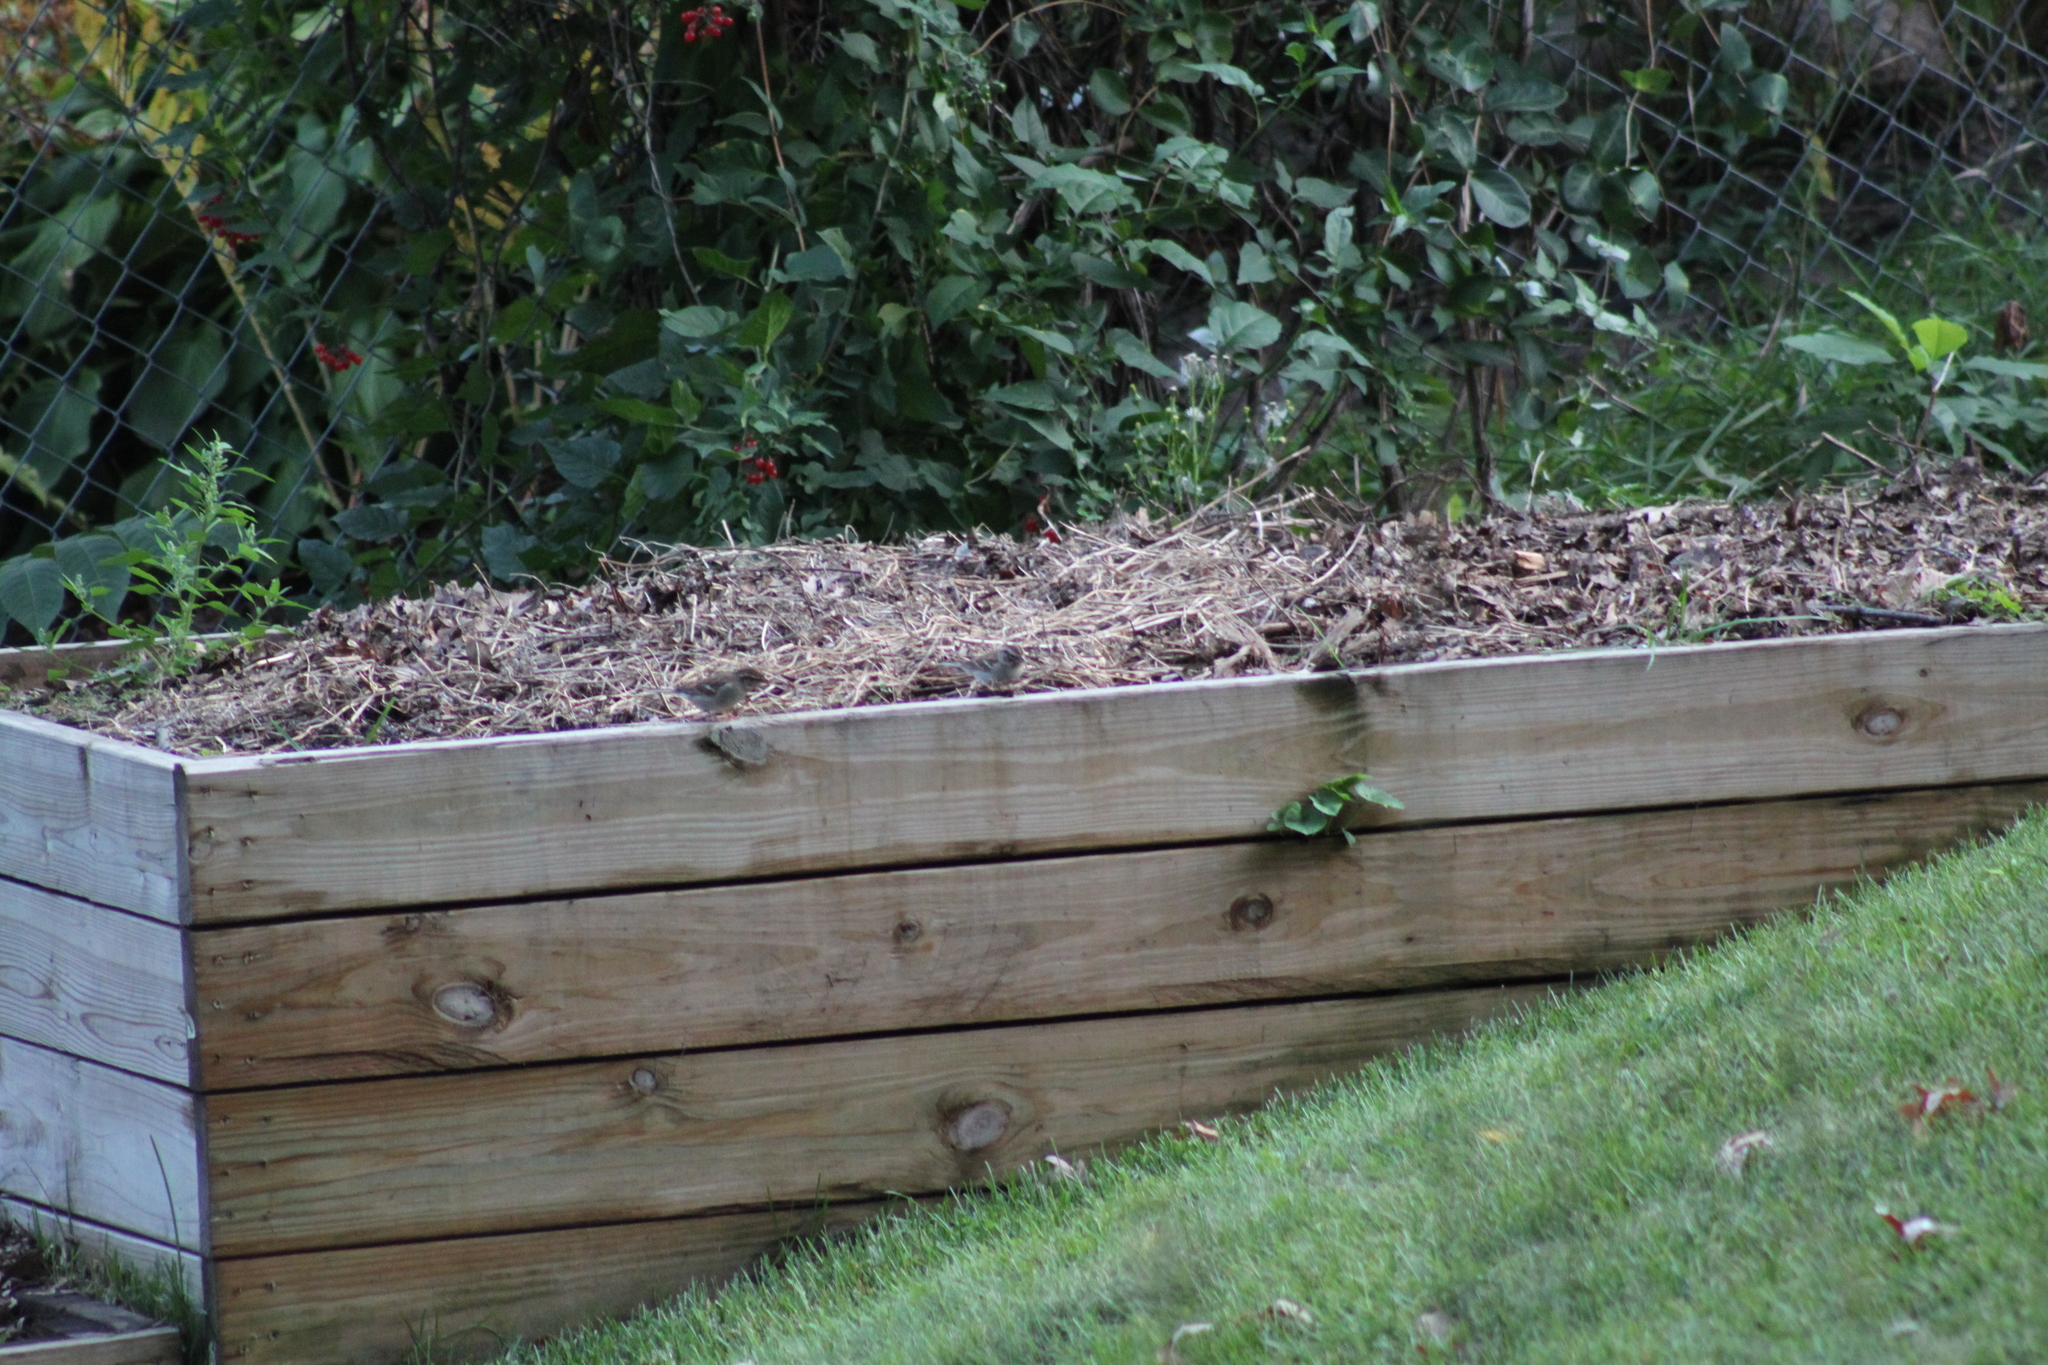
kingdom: Animalia
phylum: Chordata
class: Aves
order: Passeriformes
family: Passerellidae
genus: Spizella
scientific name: Spizella passerina
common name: Chipping sparrow
